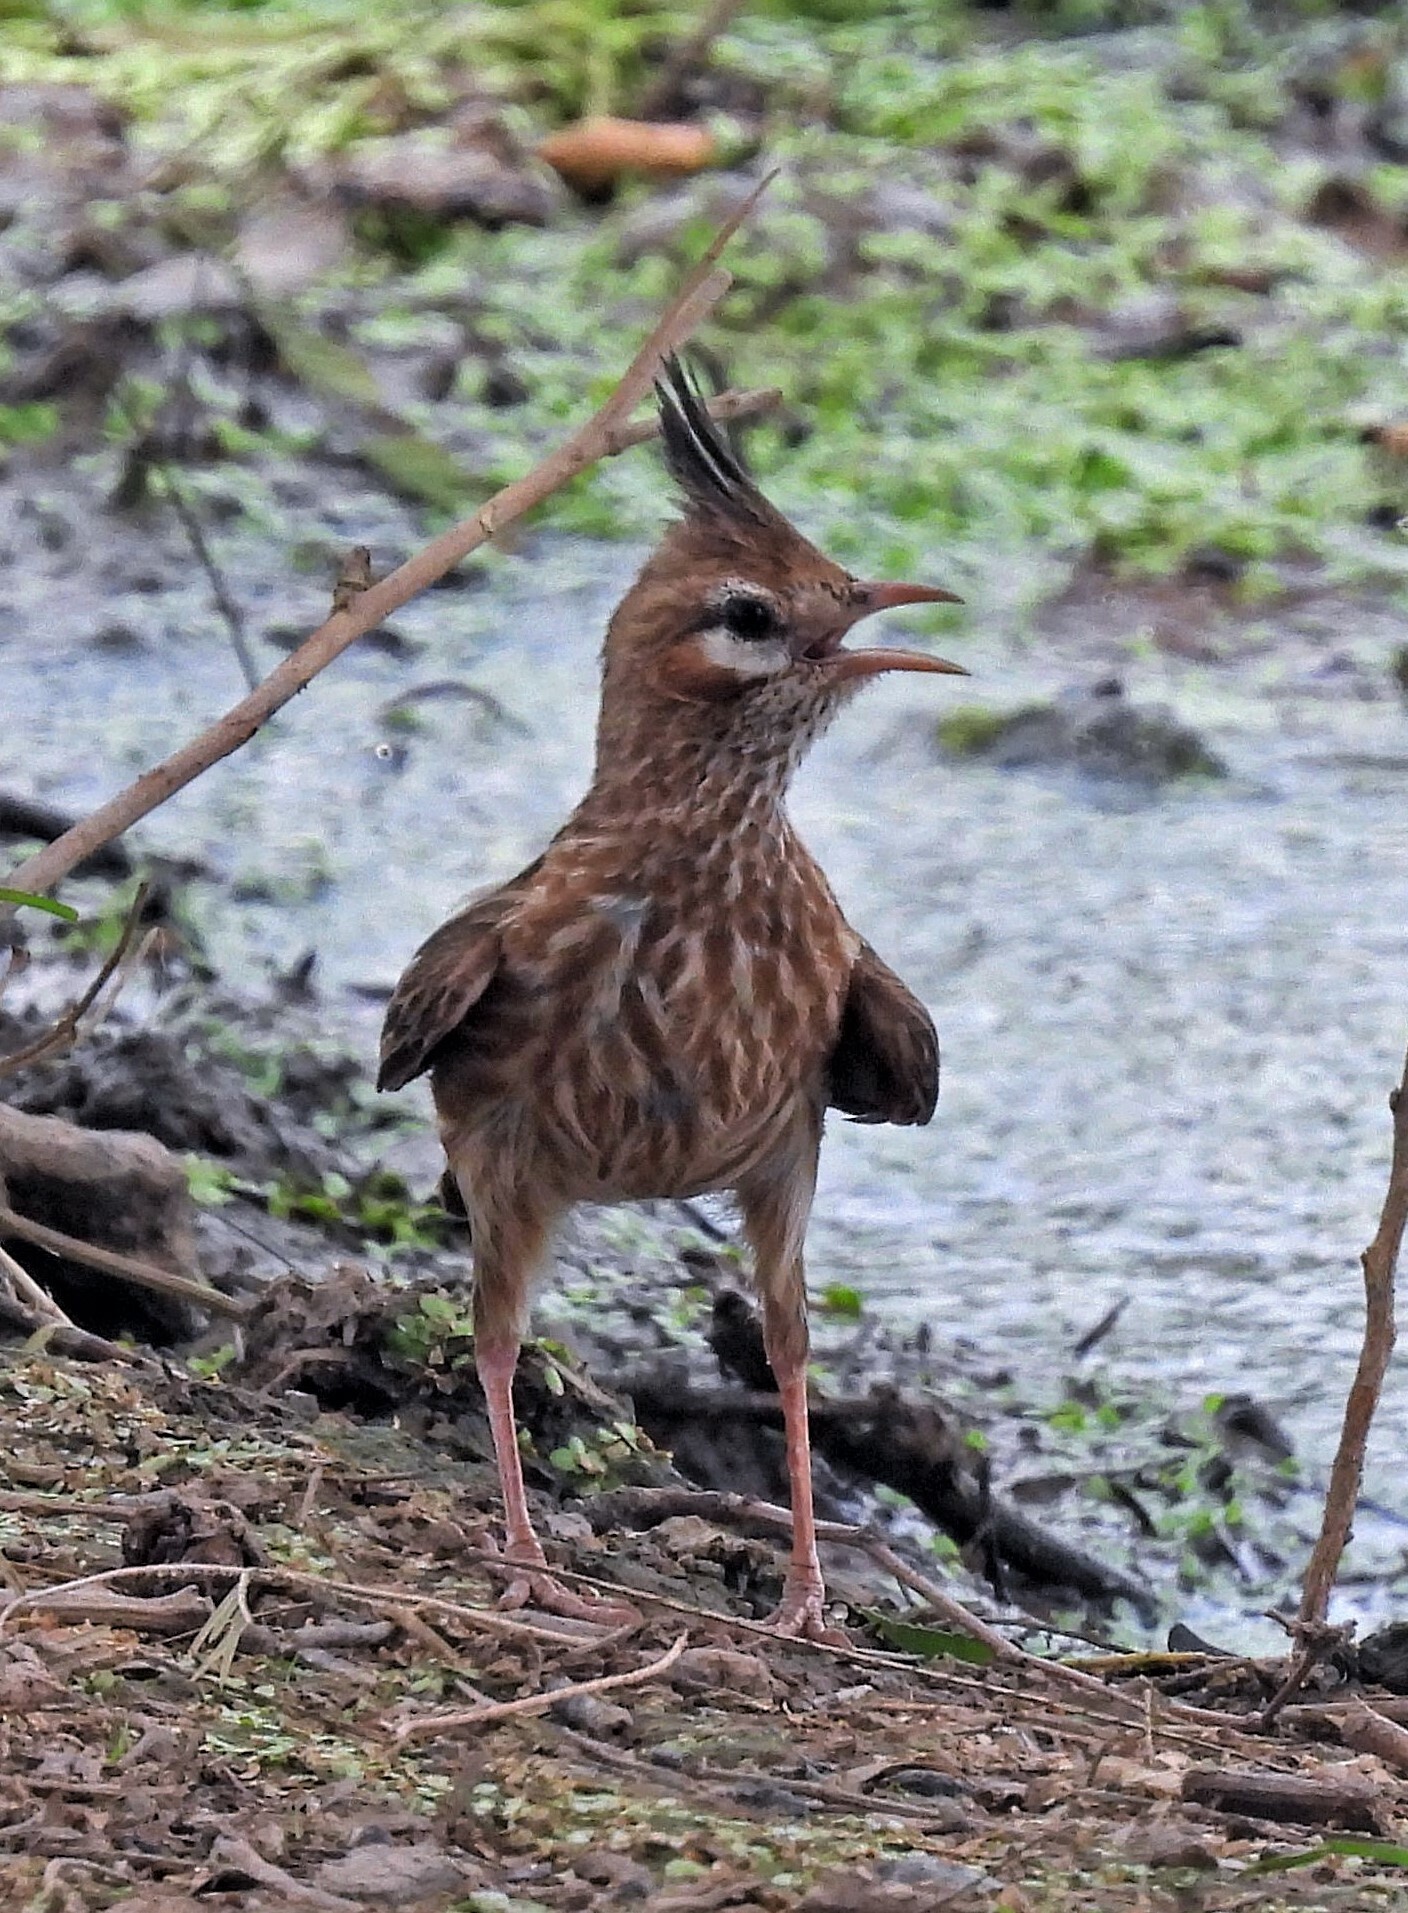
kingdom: Animalia
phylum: Chordata
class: Aves
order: Passeriformes
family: Furnariidae
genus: Coryphistera
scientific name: Coryphistera alaudina
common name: Lark-like brushrunner
